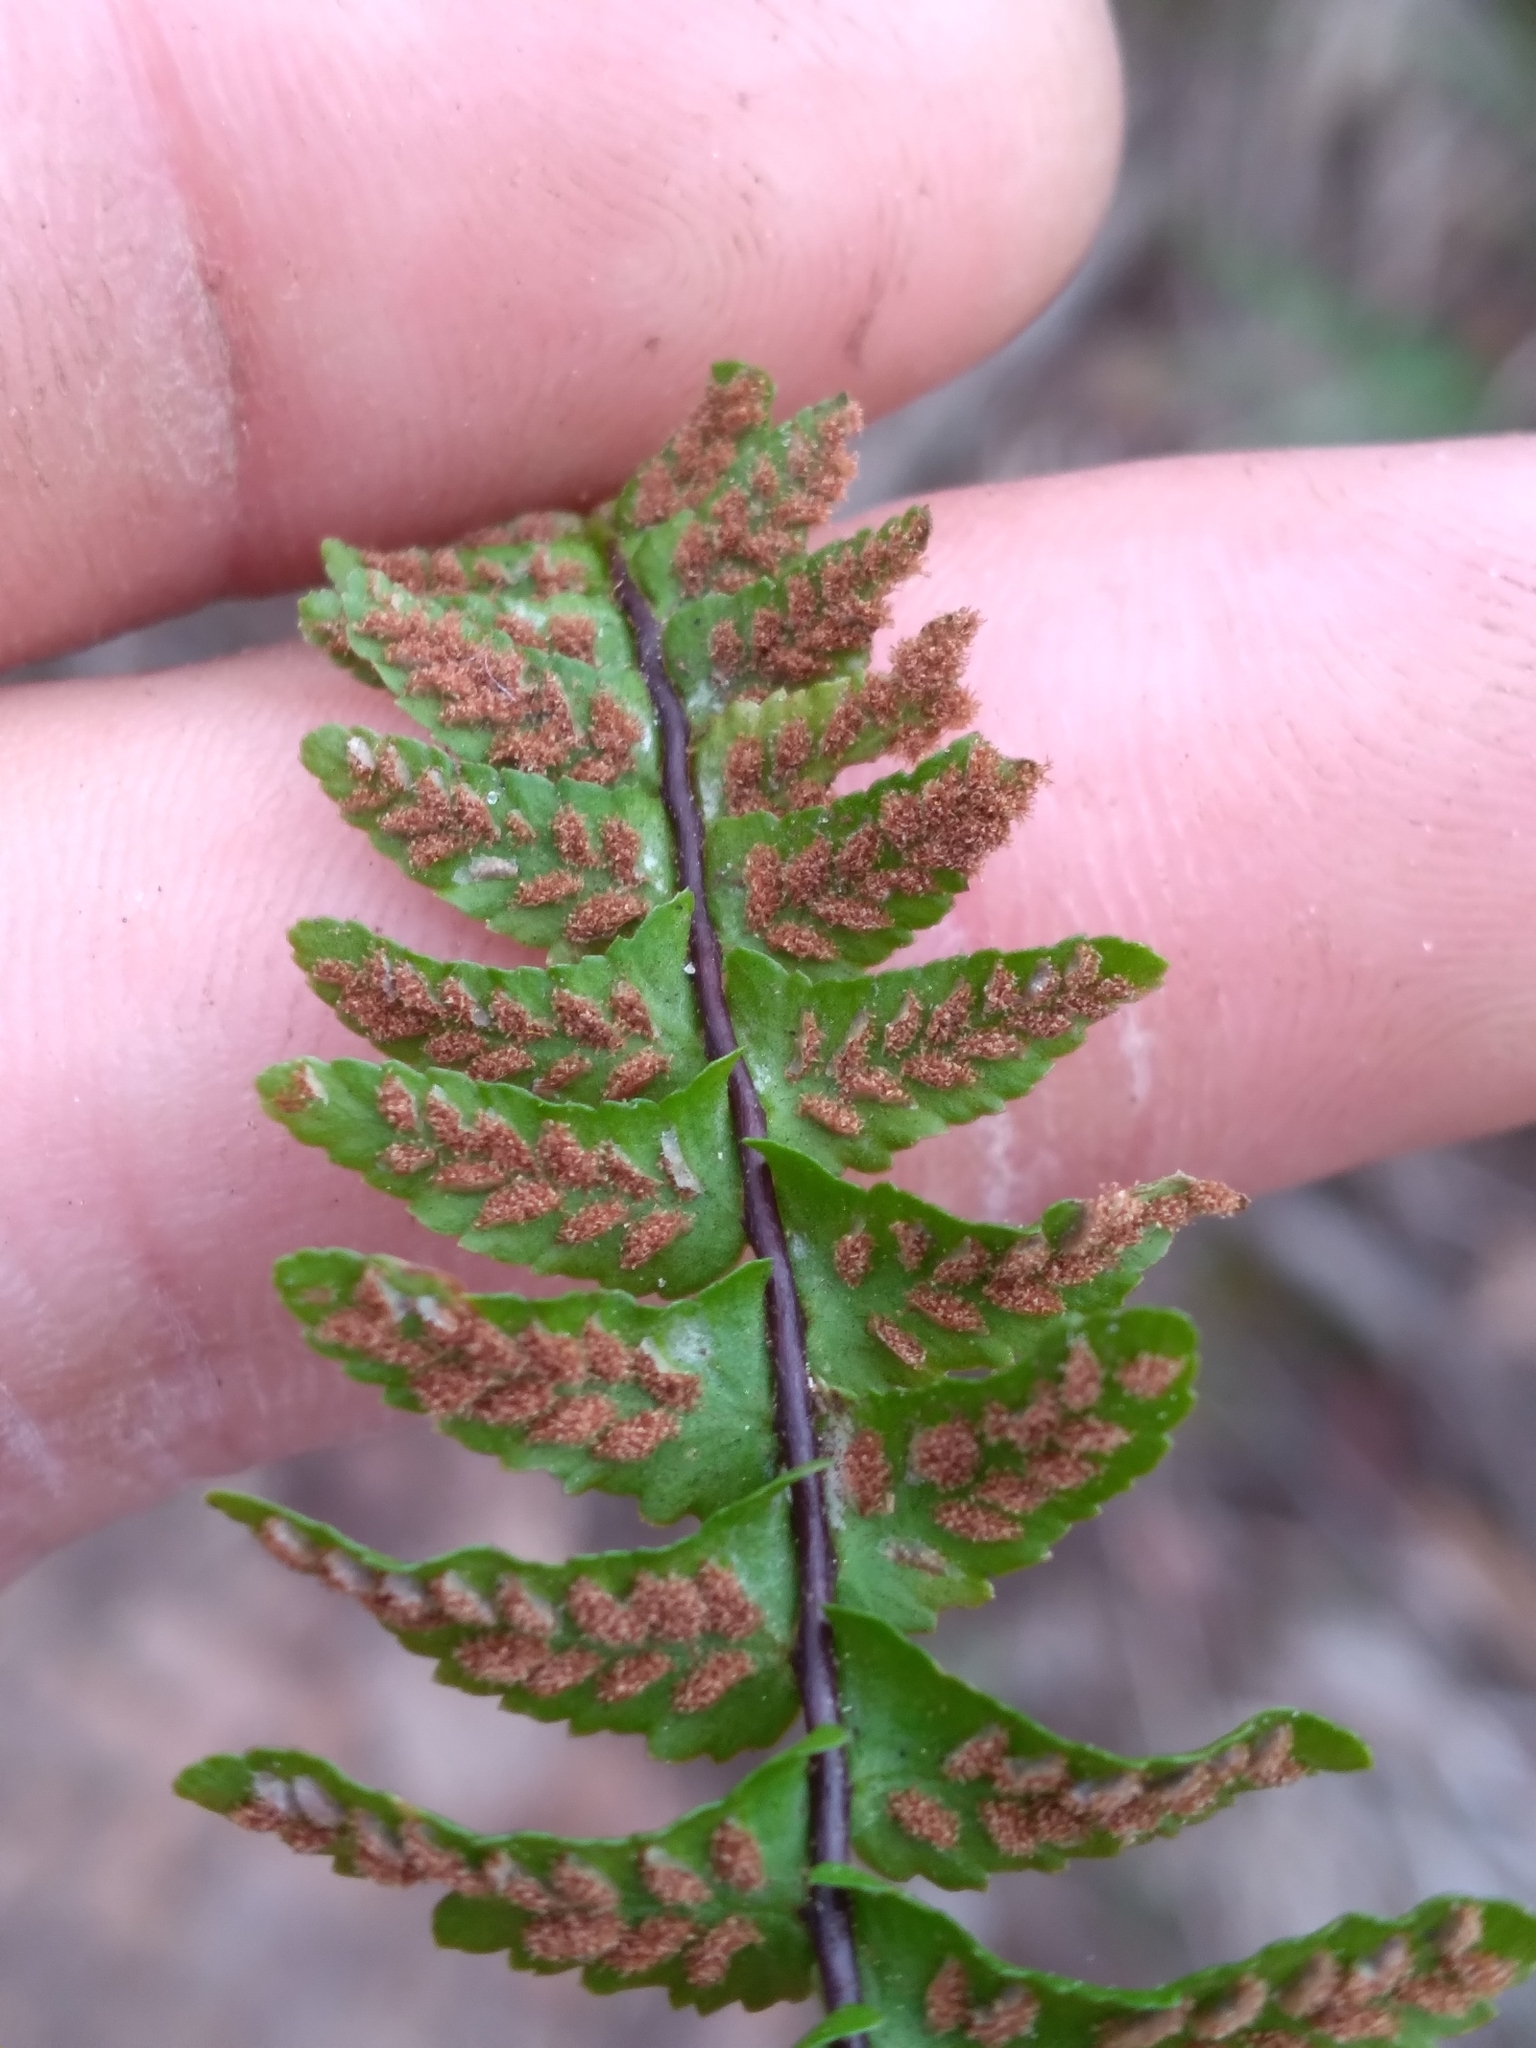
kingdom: Plantae
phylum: Tracheophyta
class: Polypodiopsida
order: Polypodiales
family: Aspleniaceae
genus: Asplenium
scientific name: Asplenium platyneuron
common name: Ebony spleenwort
